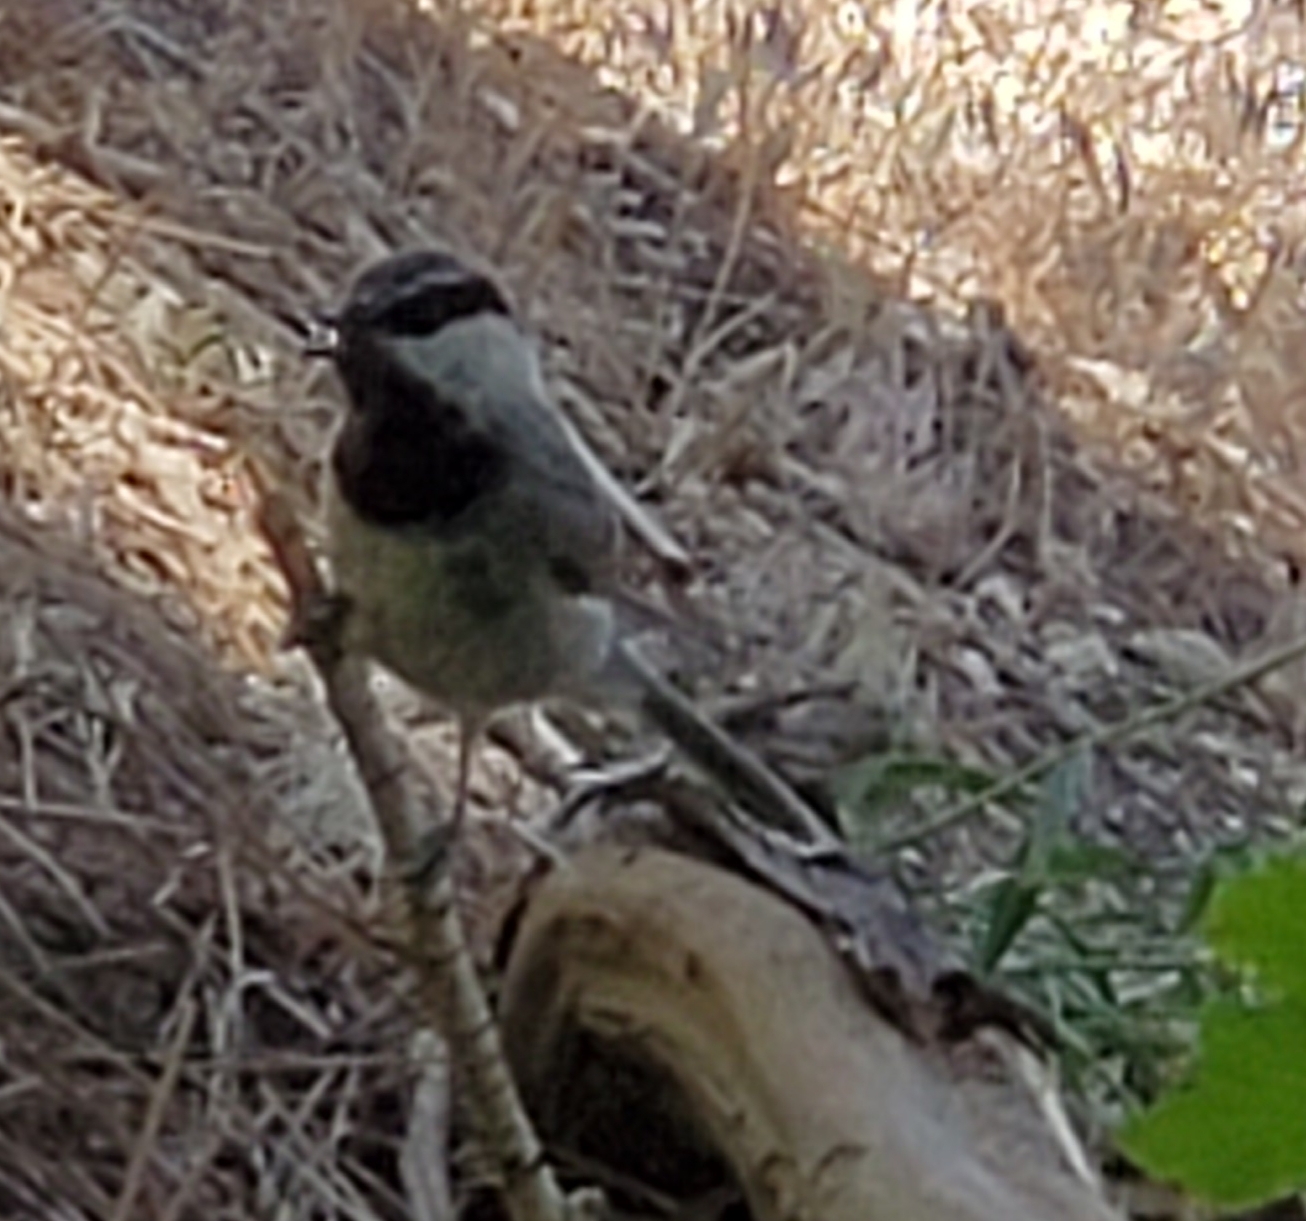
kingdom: Animalia
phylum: Chordata
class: Aves
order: Passeriformes
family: Paridae
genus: Poecile
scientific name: Poecile gambeli
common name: Mountain chickadee
